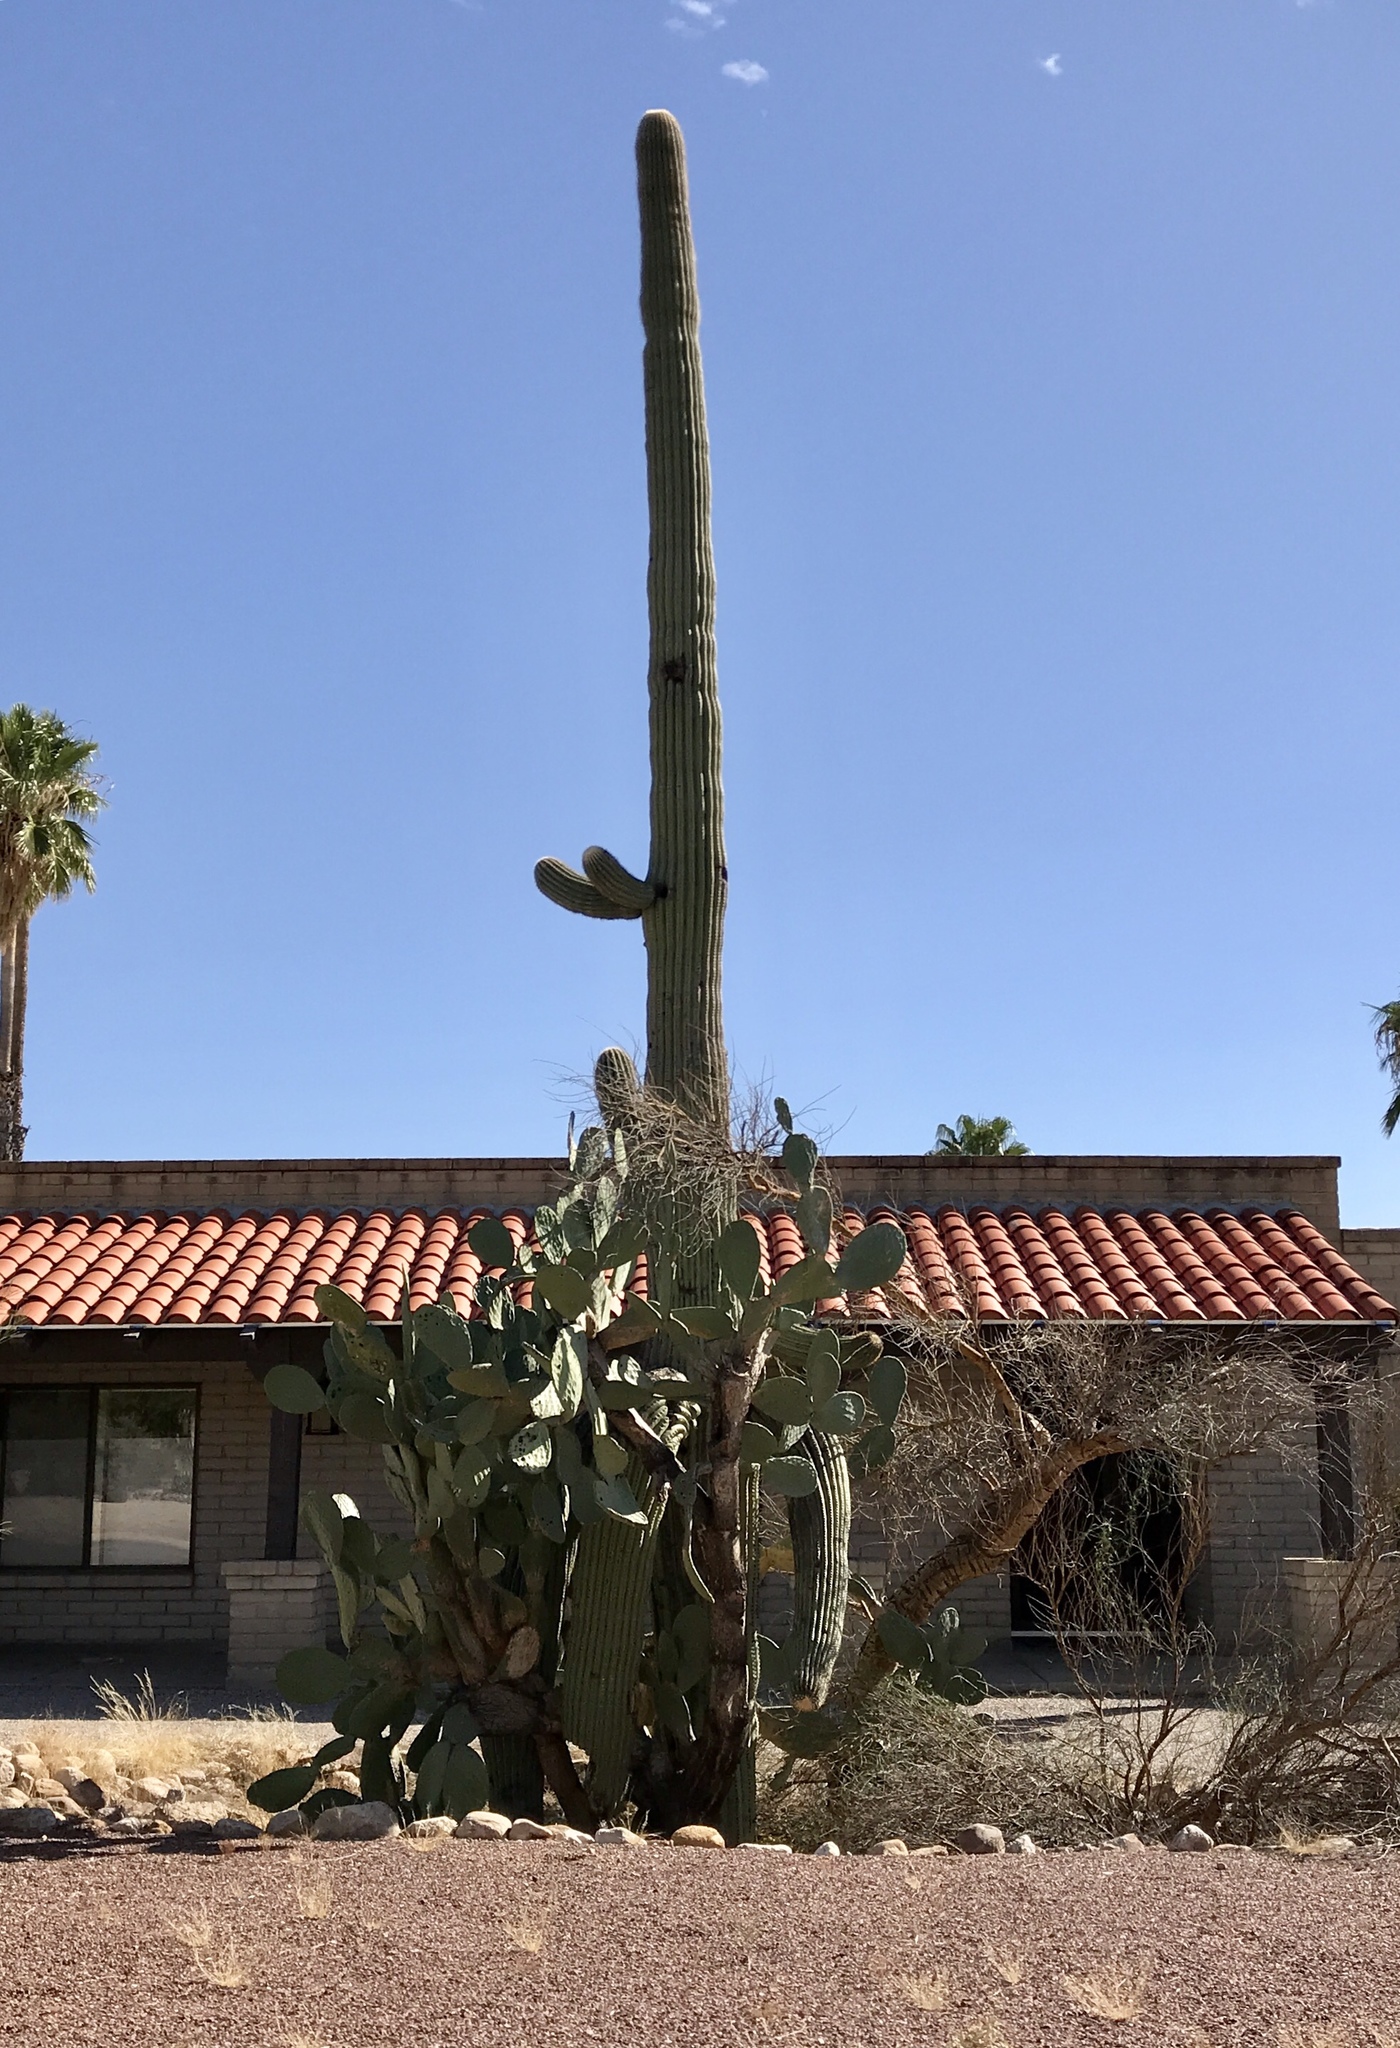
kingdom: Plantae
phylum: Tracheophyta
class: Magnoliopsida
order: Caryophyllales
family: Cactaceae
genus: Carnegiea
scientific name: Carnegiea gigantea
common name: Saguaro
